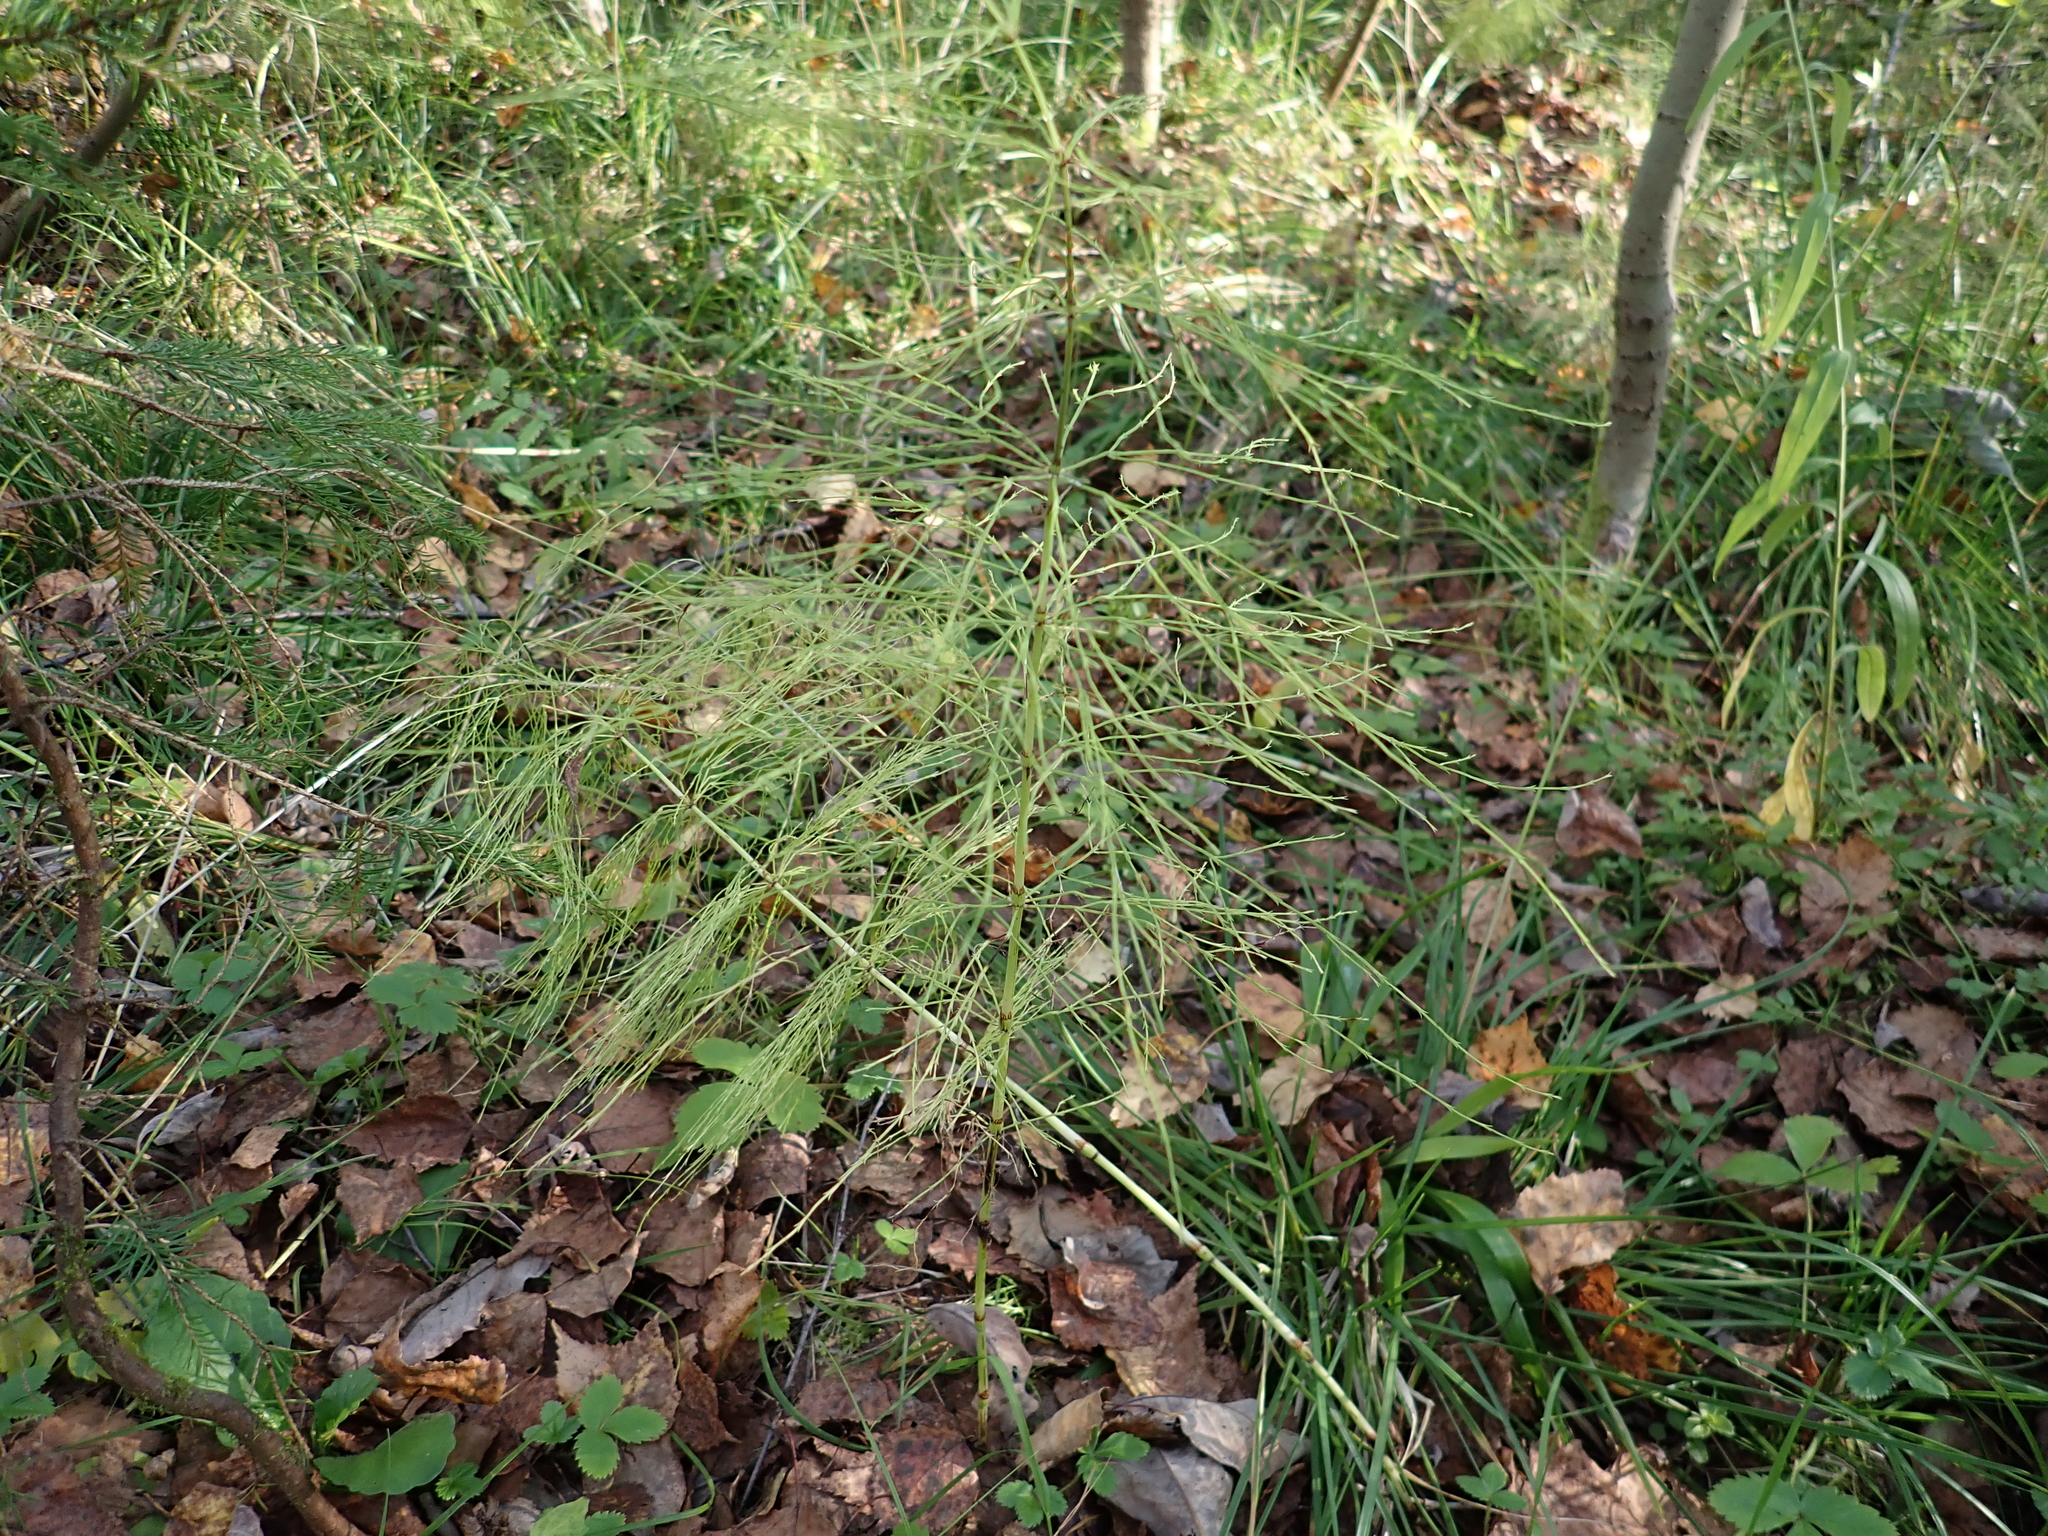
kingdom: Plantae
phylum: Tracheophyta
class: Polypodiopsida
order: Equisetales
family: Equisetaceae
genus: Equisetum
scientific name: Equisetum sylvaticum
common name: Wood horsetail
